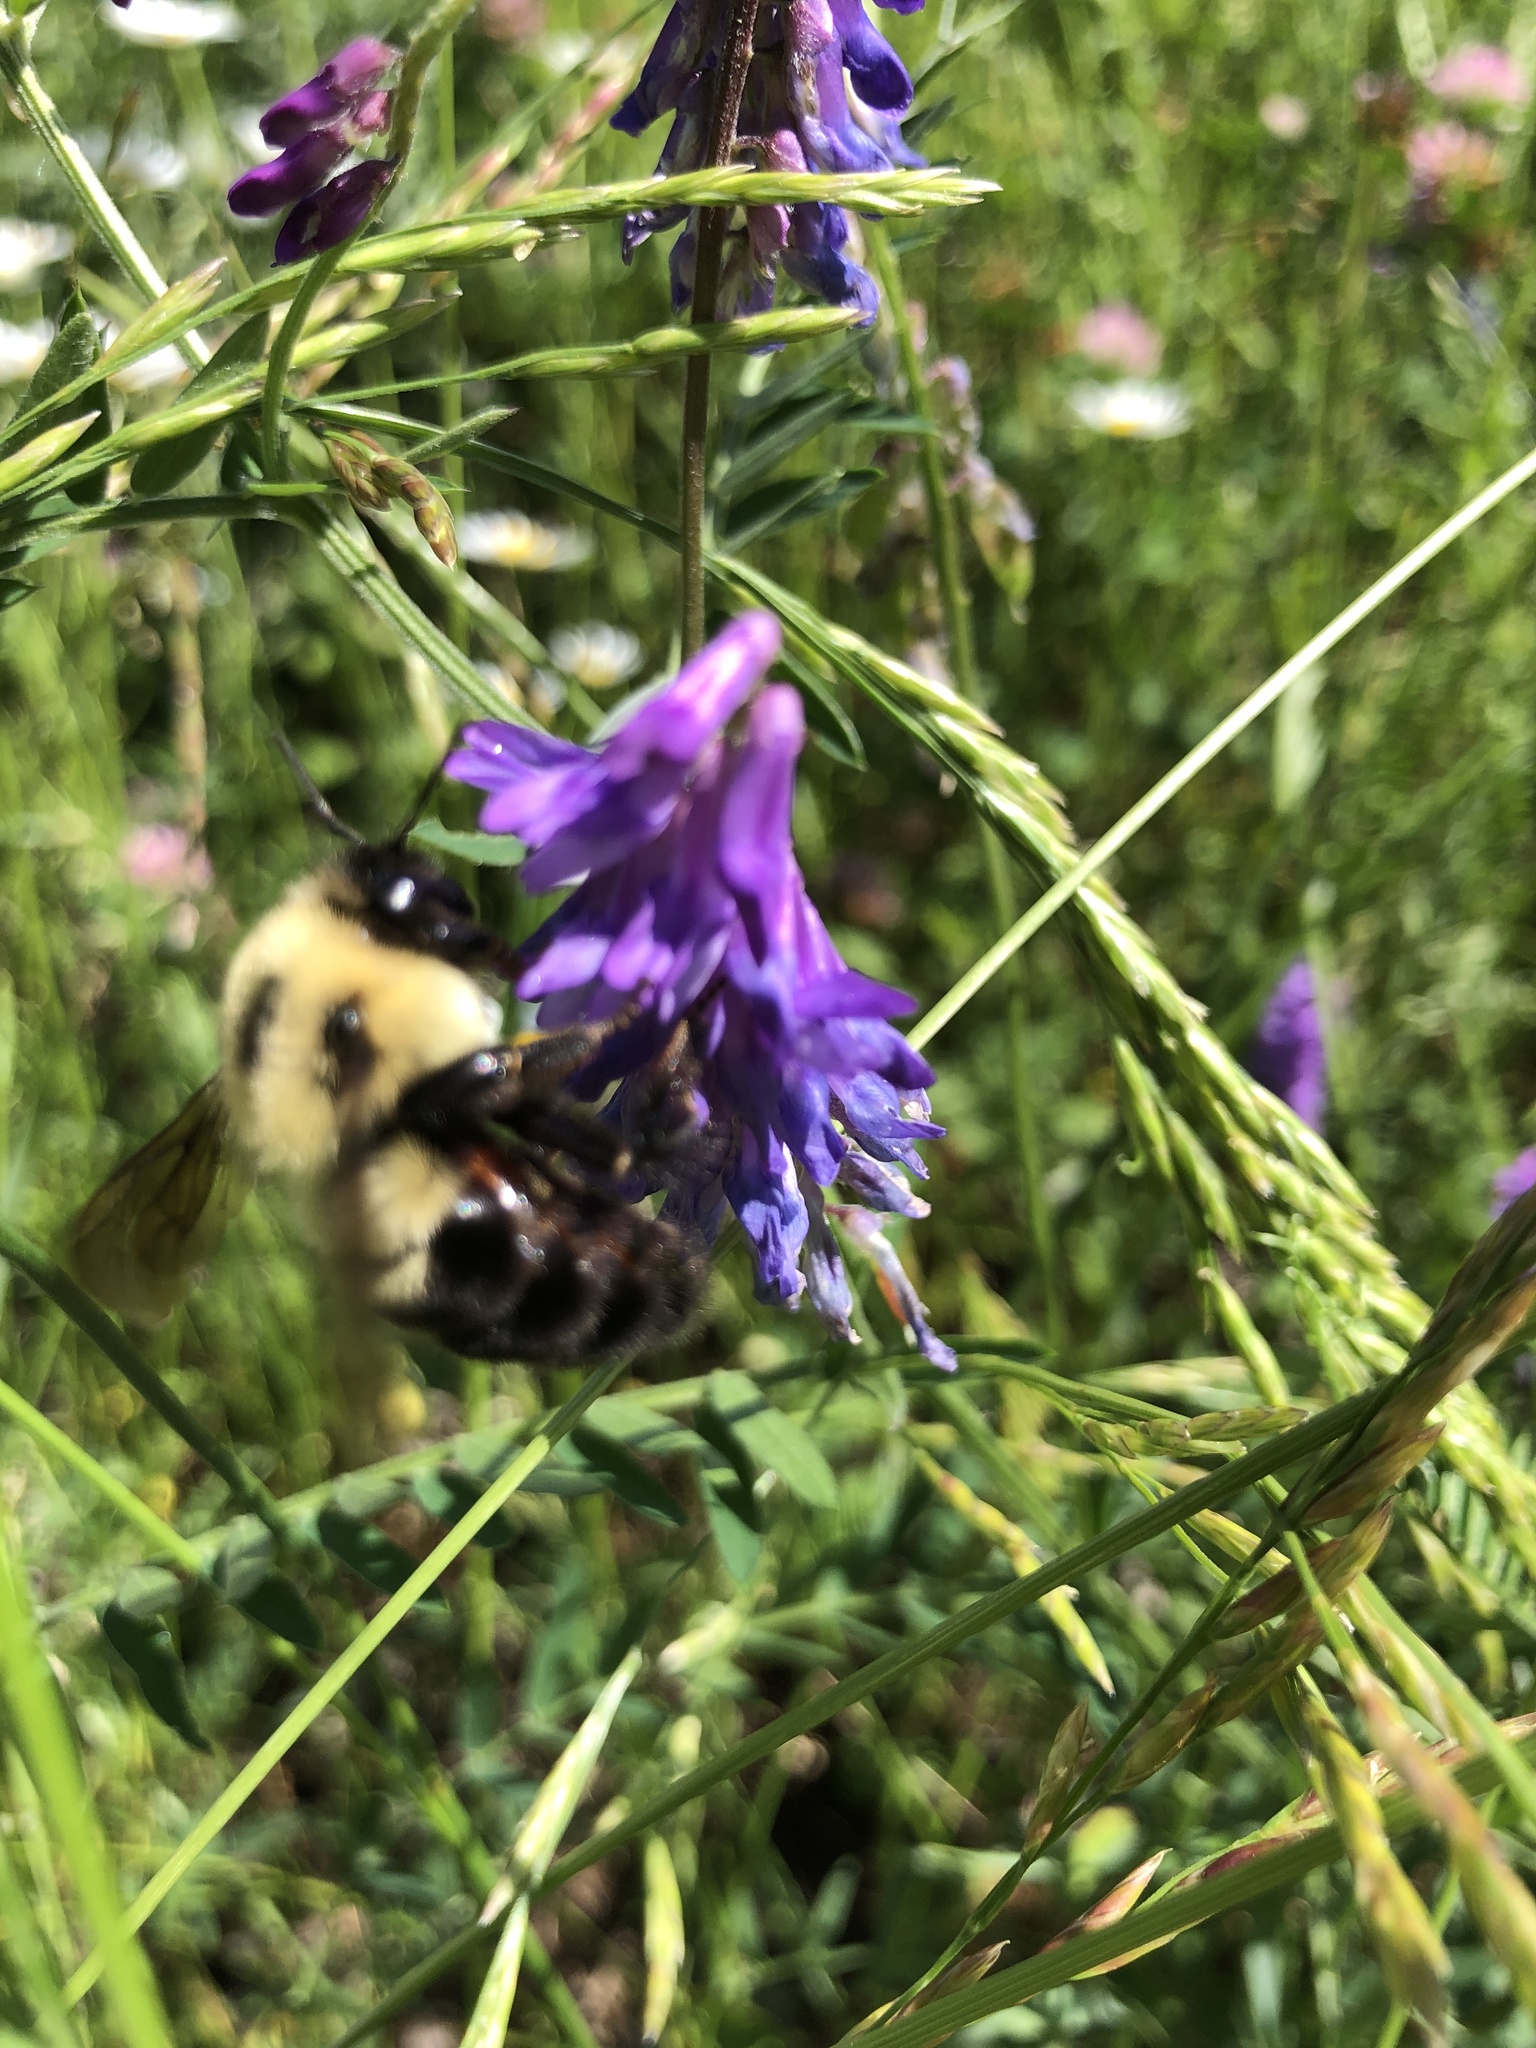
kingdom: Animalia
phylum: Arthropoda
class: Insecta
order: Hymenoptera
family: Apidae
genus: Bombus
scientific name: Bombus bimaculatus
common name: Two-spotted bumble bee
